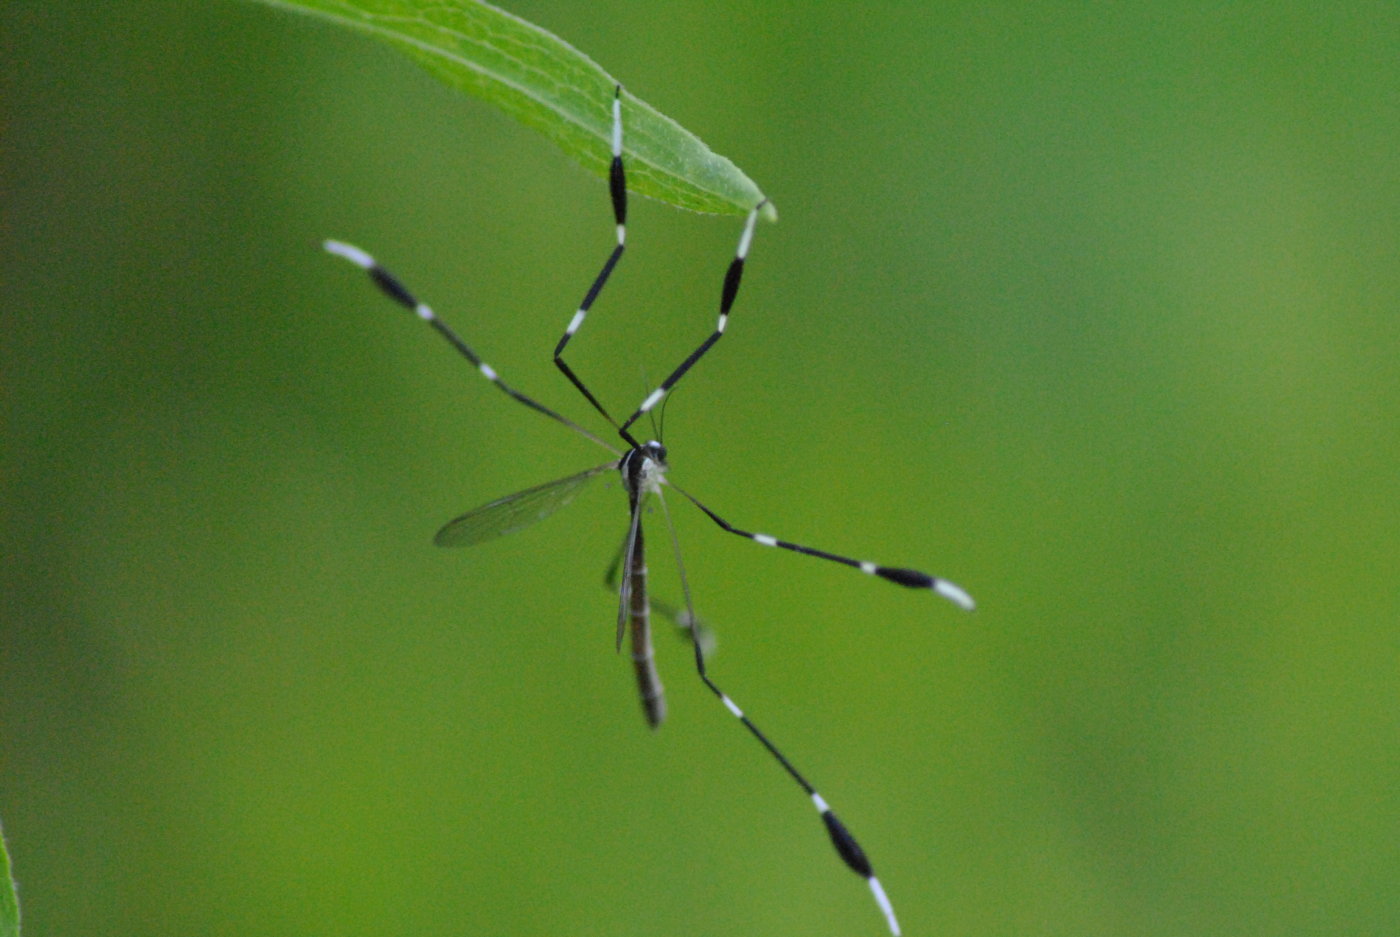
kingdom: Animalia
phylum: Arthropoda
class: Insecta
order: Diptera
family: Ptychopteridae
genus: Bittacomorpha
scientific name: Bittacomorpha clavipes
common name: Eastern phantom crane fly
